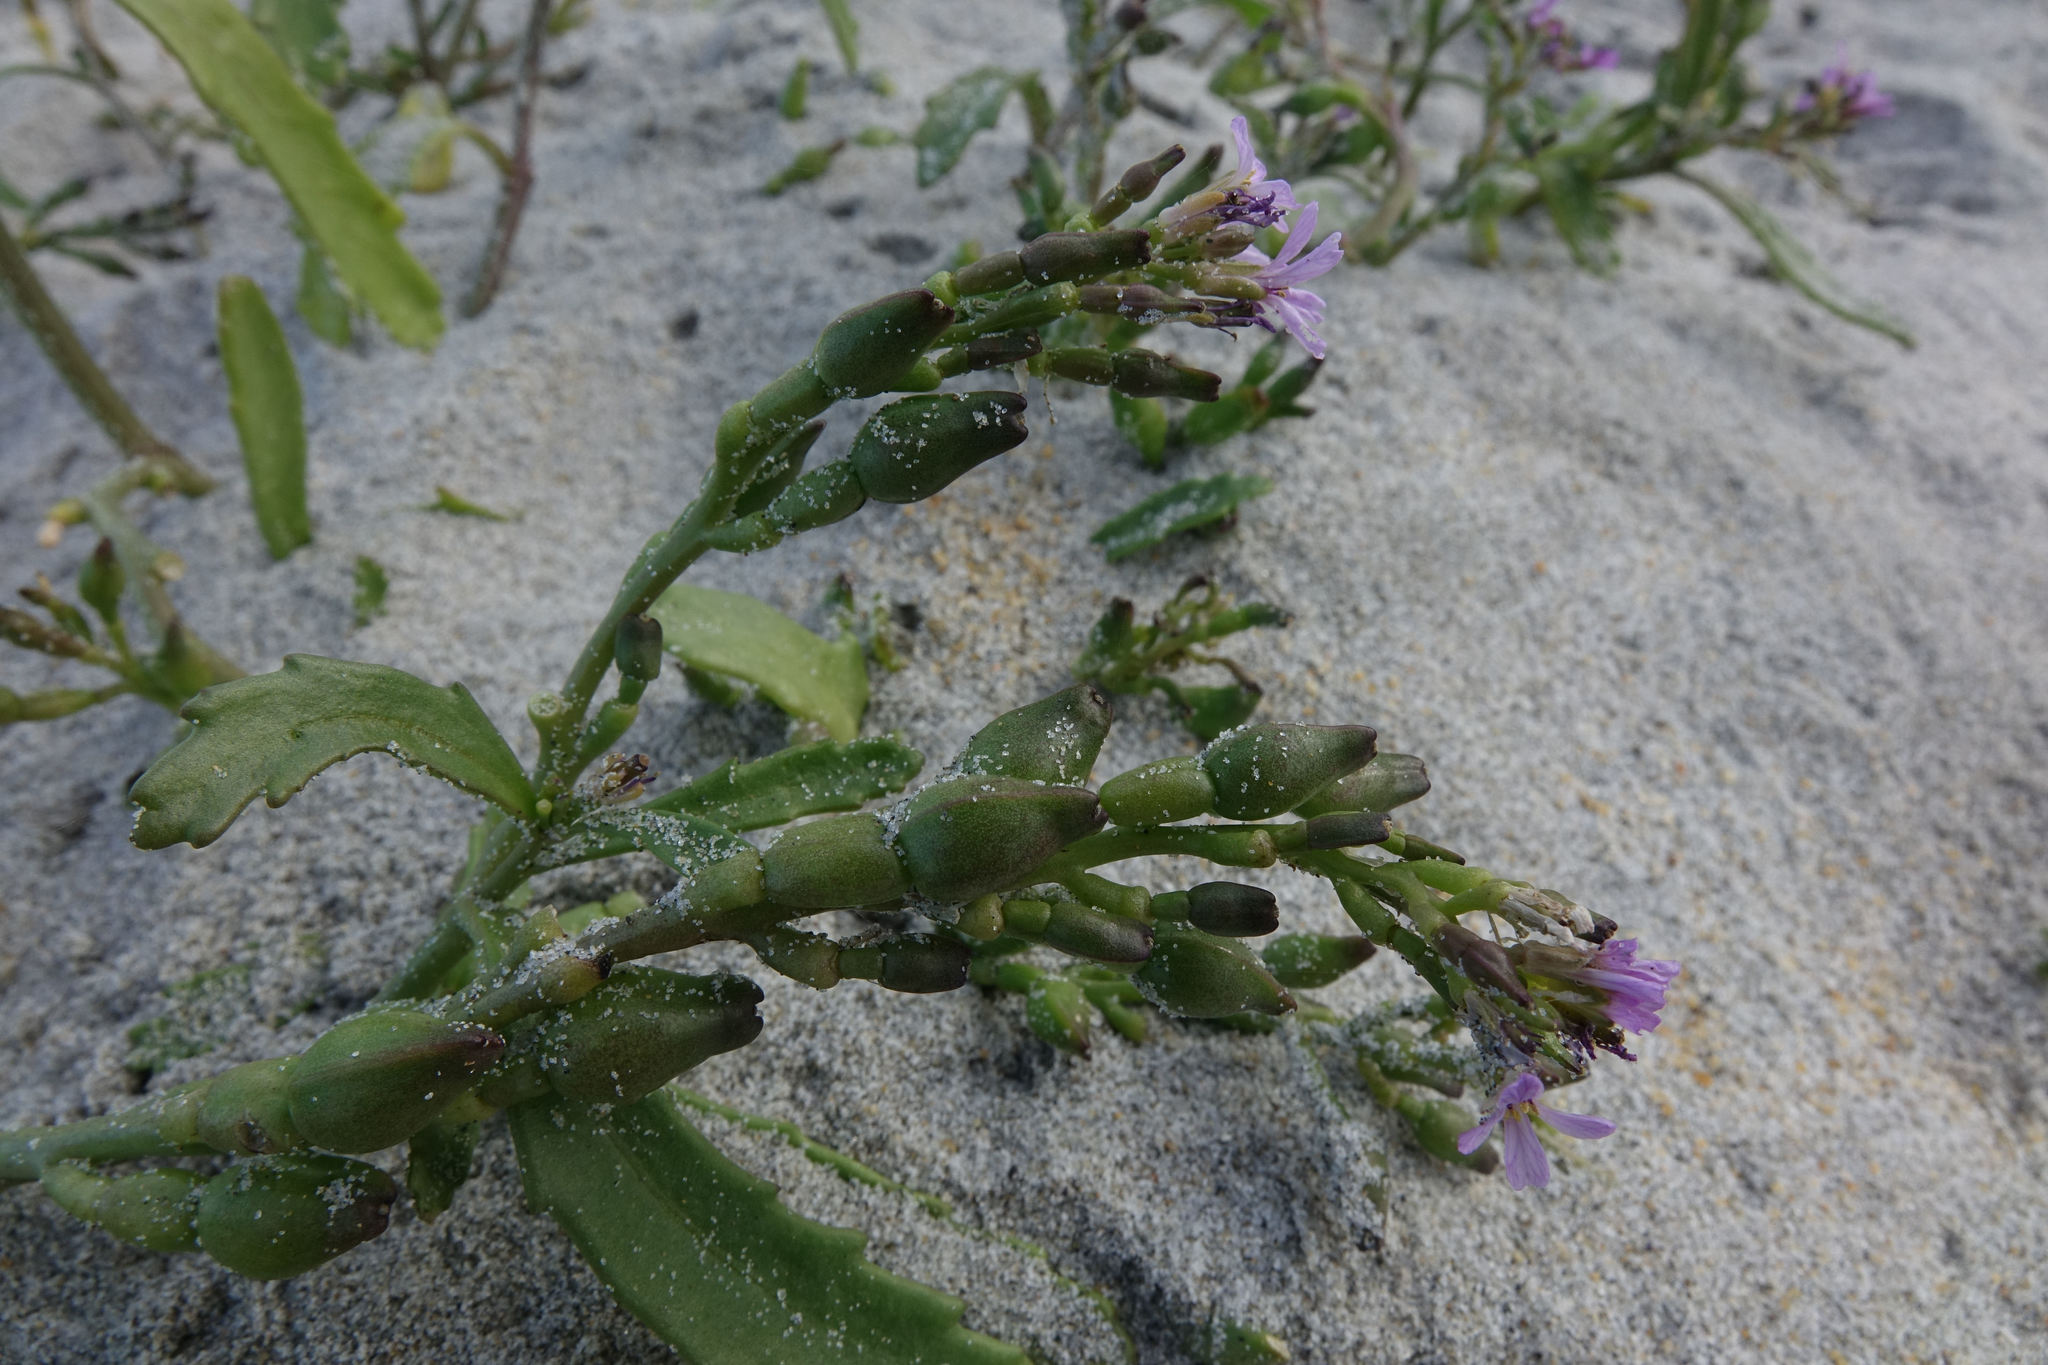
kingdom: Plantae
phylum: Tracheophyta
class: Magnoliopsida
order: Brassicales
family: Brassicaceae
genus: Cakile
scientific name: Cakile edentula
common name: American sea rocket
